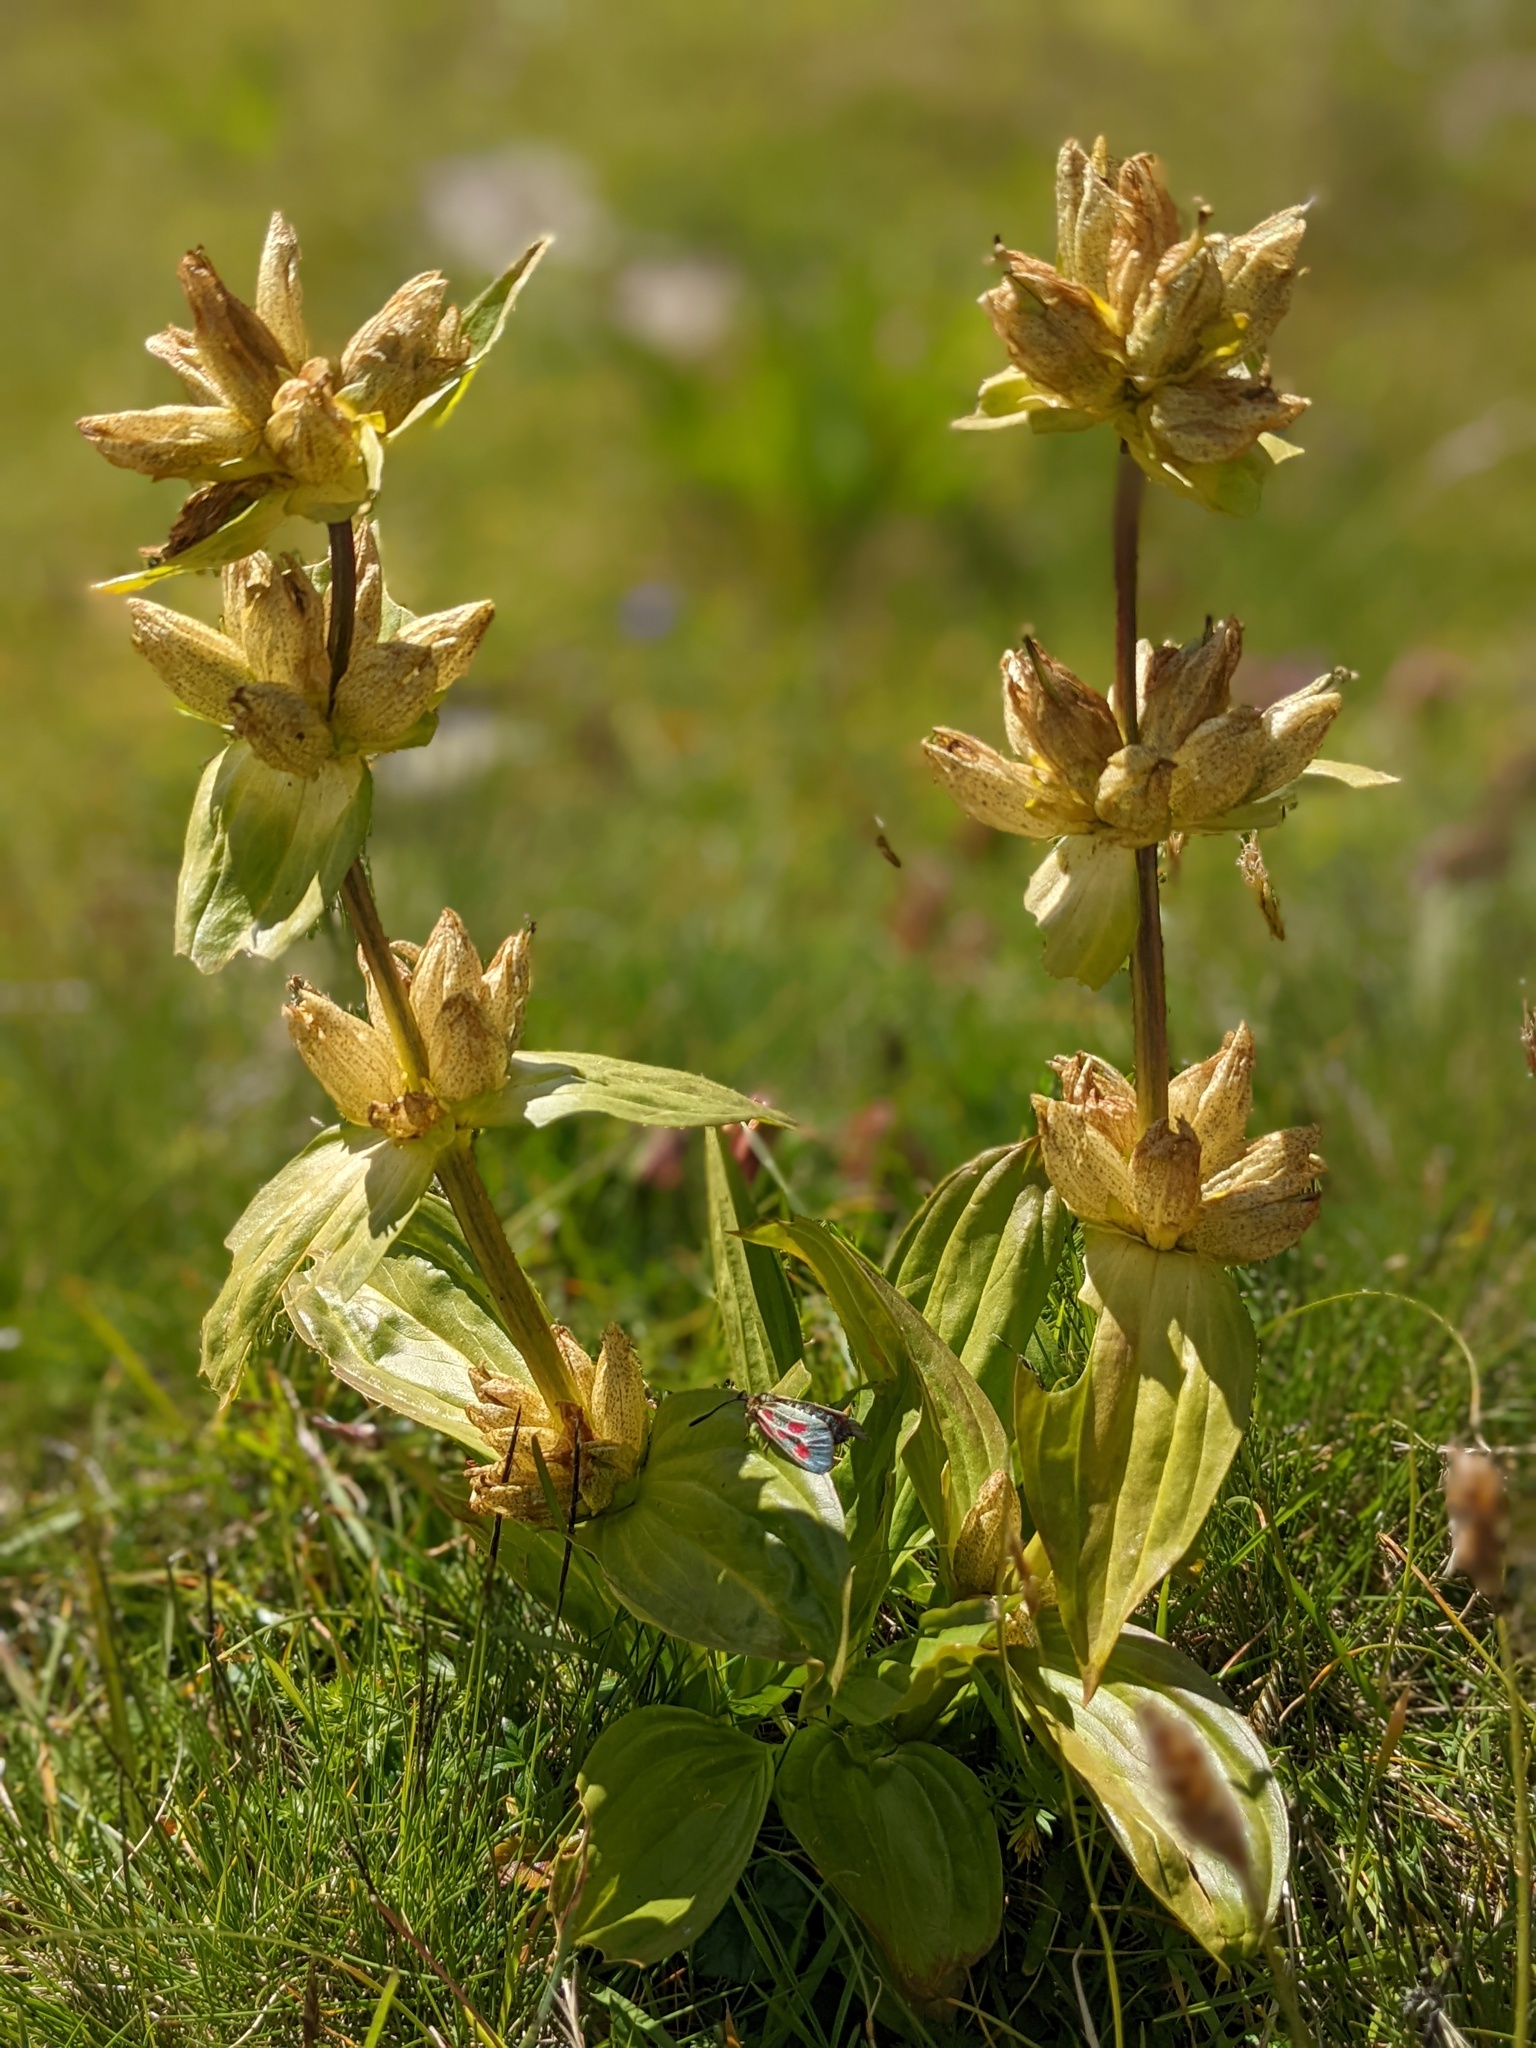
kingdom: Plantae
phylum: Tracheophyta
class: Magnoliopsida
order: Gentianales
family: Gentianaceae
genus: Gentiana
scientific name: Gentiana punctata
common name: Spotted gentian
